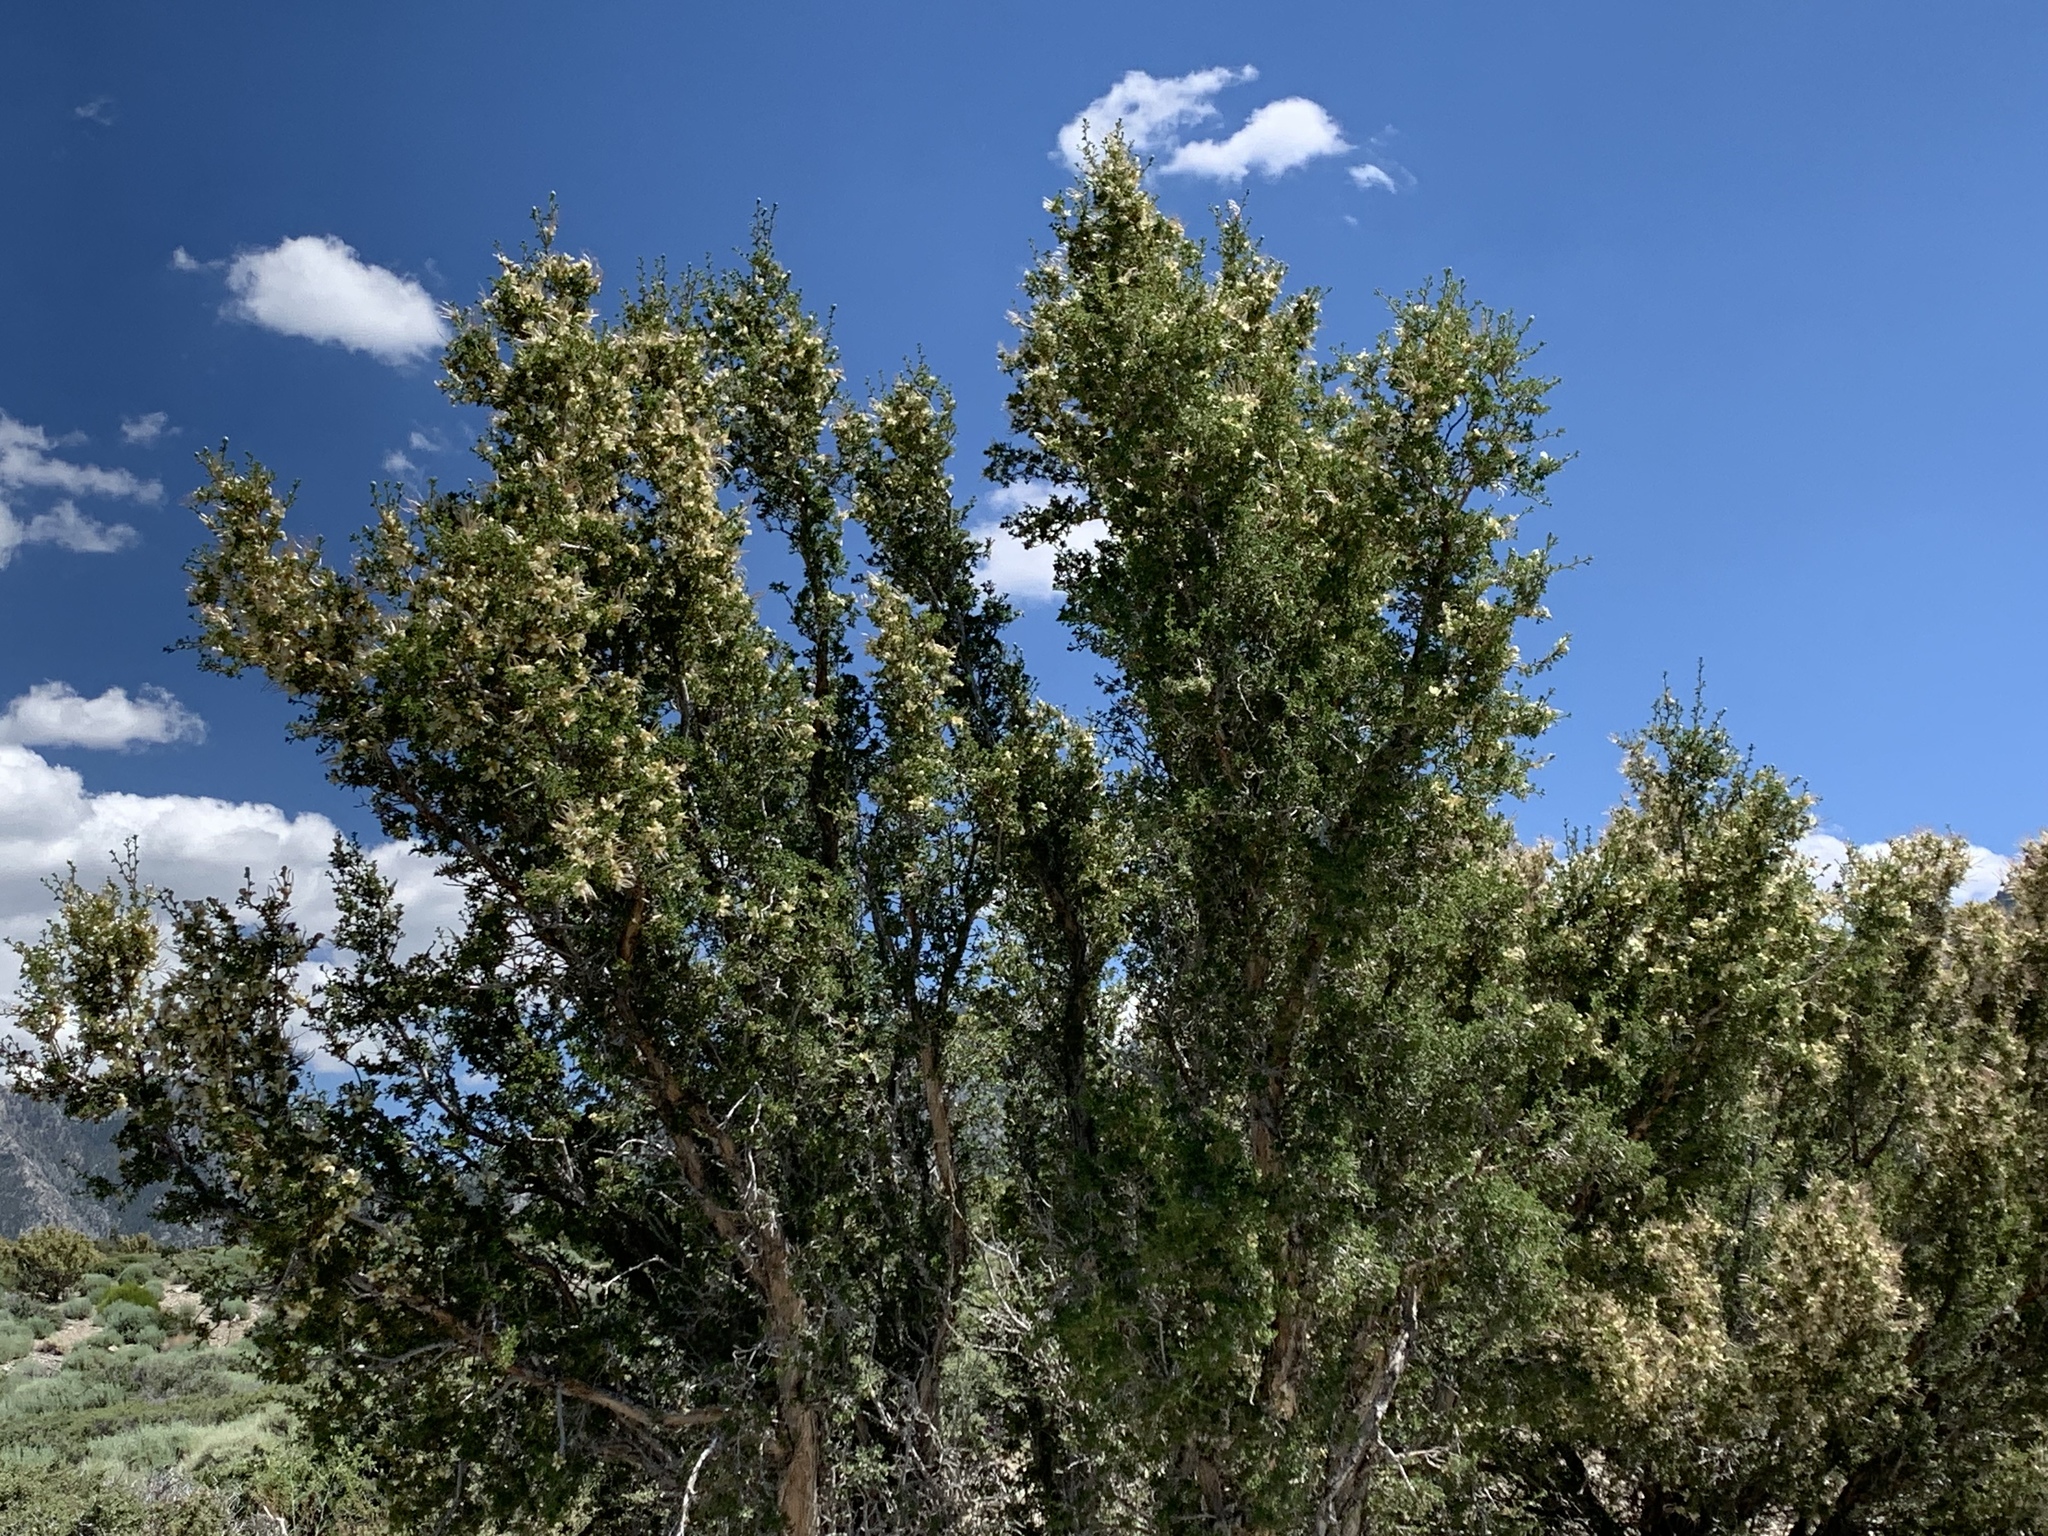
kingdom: Plantae
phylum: Tracheophyta
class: Magnoliopsida
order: Rosales
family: Rosaceae
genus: Purshia
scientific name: Purshia stansburiana
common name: Stansbury's cliffrose
